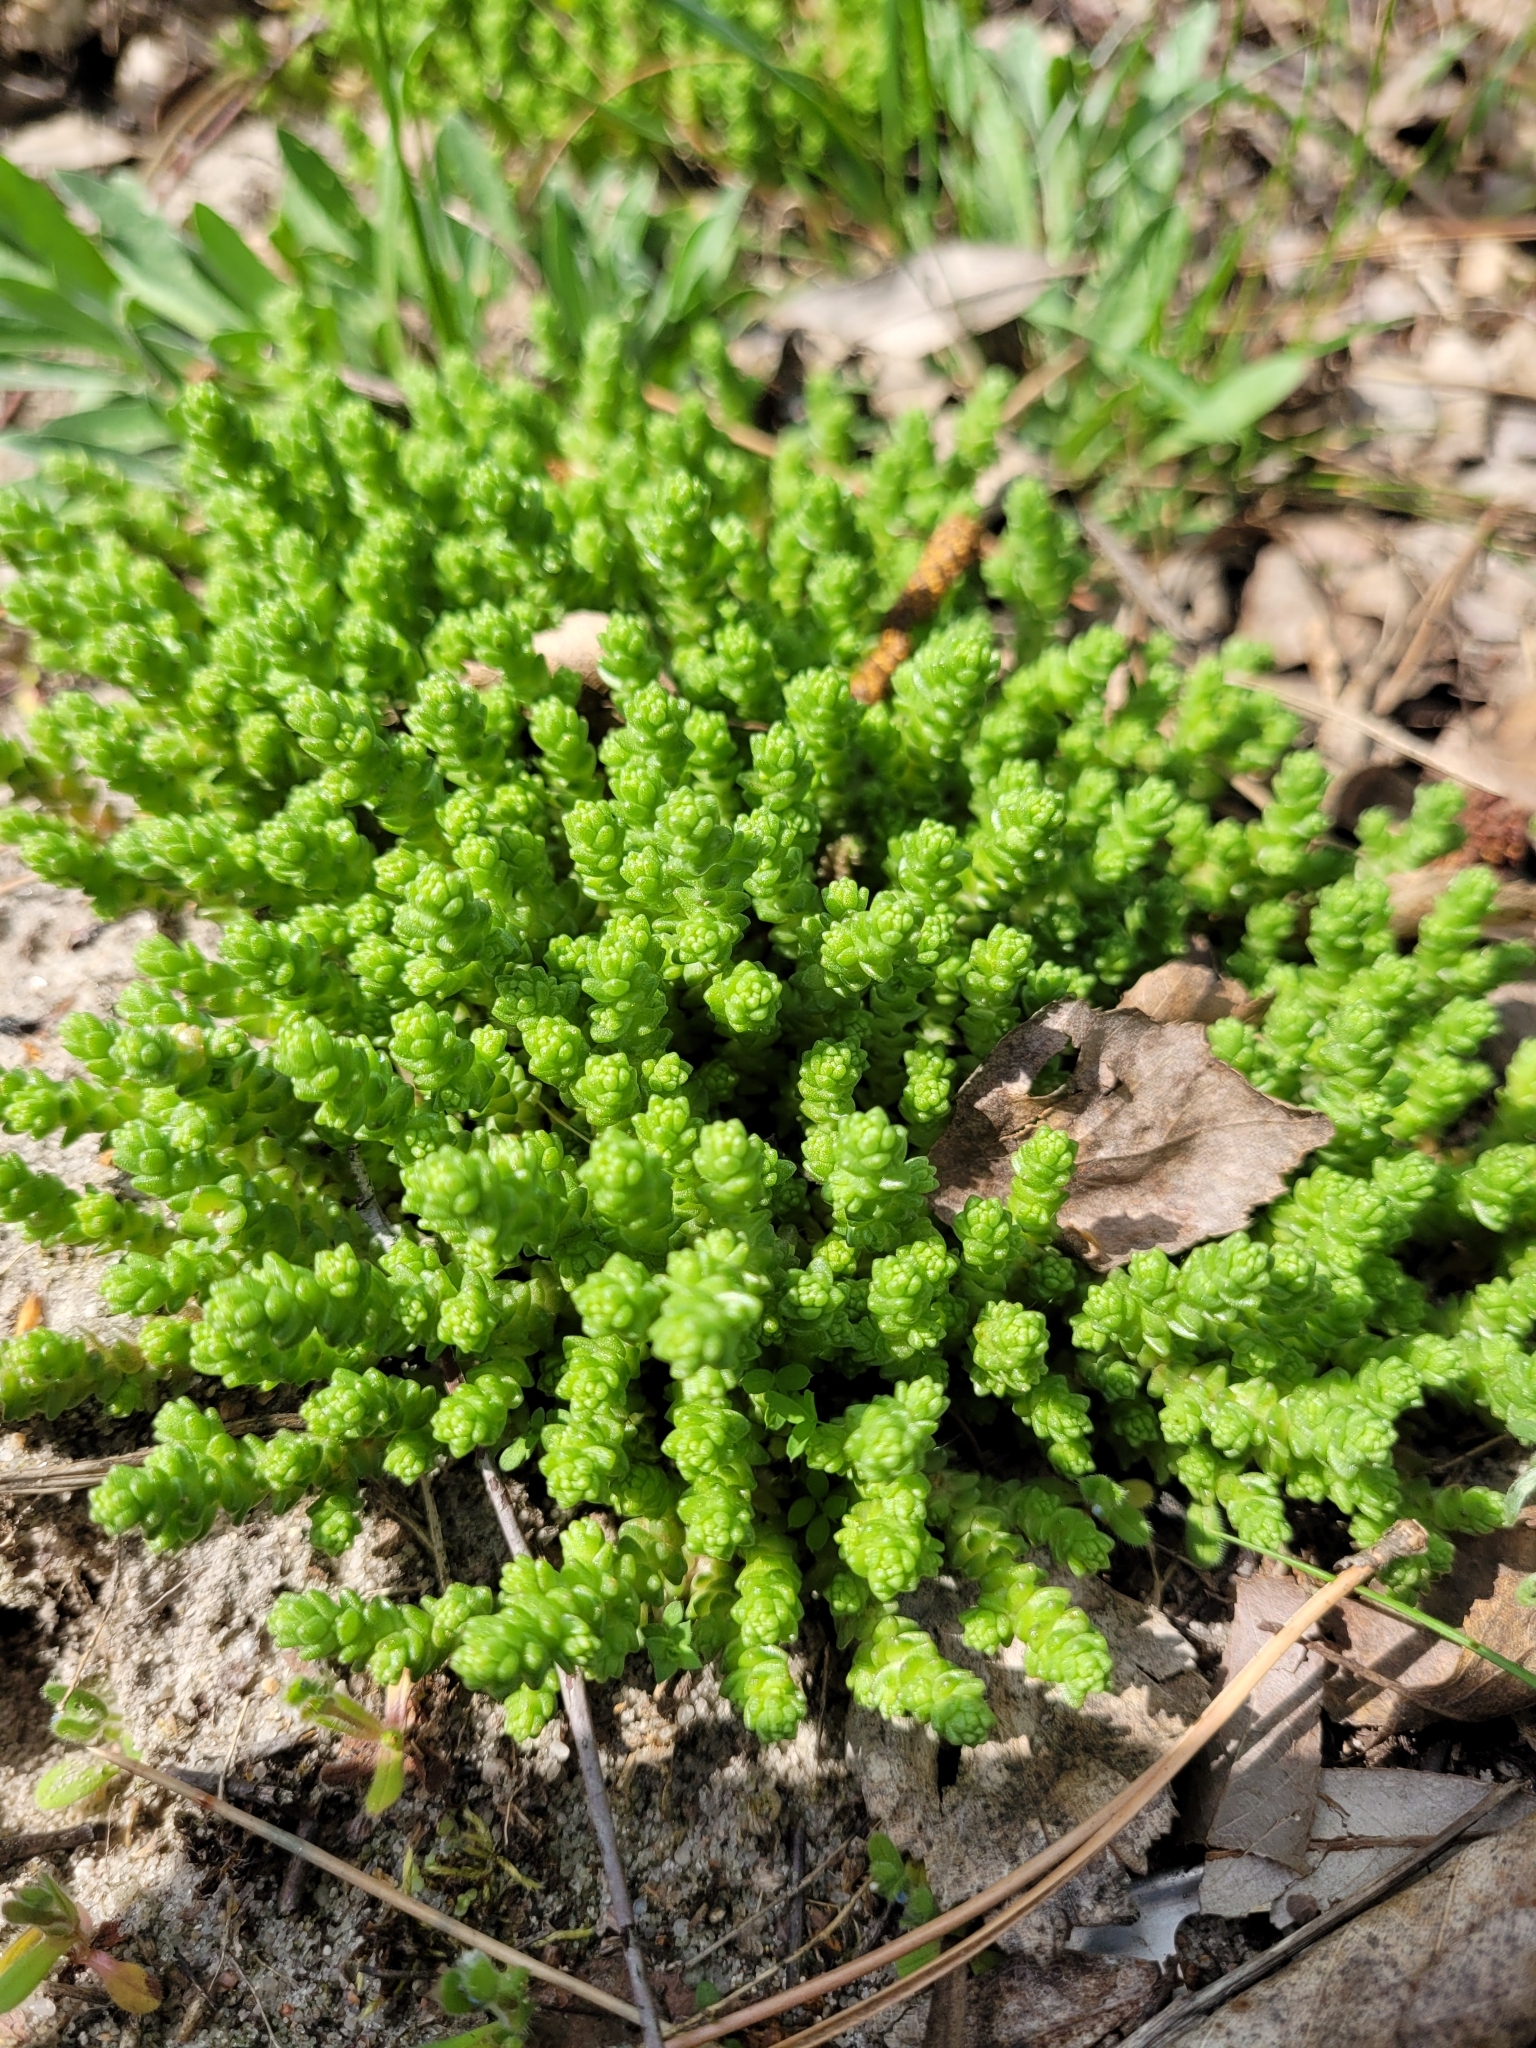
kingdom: Plantae
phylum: Tracheophyta
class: Magnoliopsida
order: Saxifragales
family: Crassulaceae
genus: Sedum
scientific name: Sedum acre
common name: Biting stonecrop
